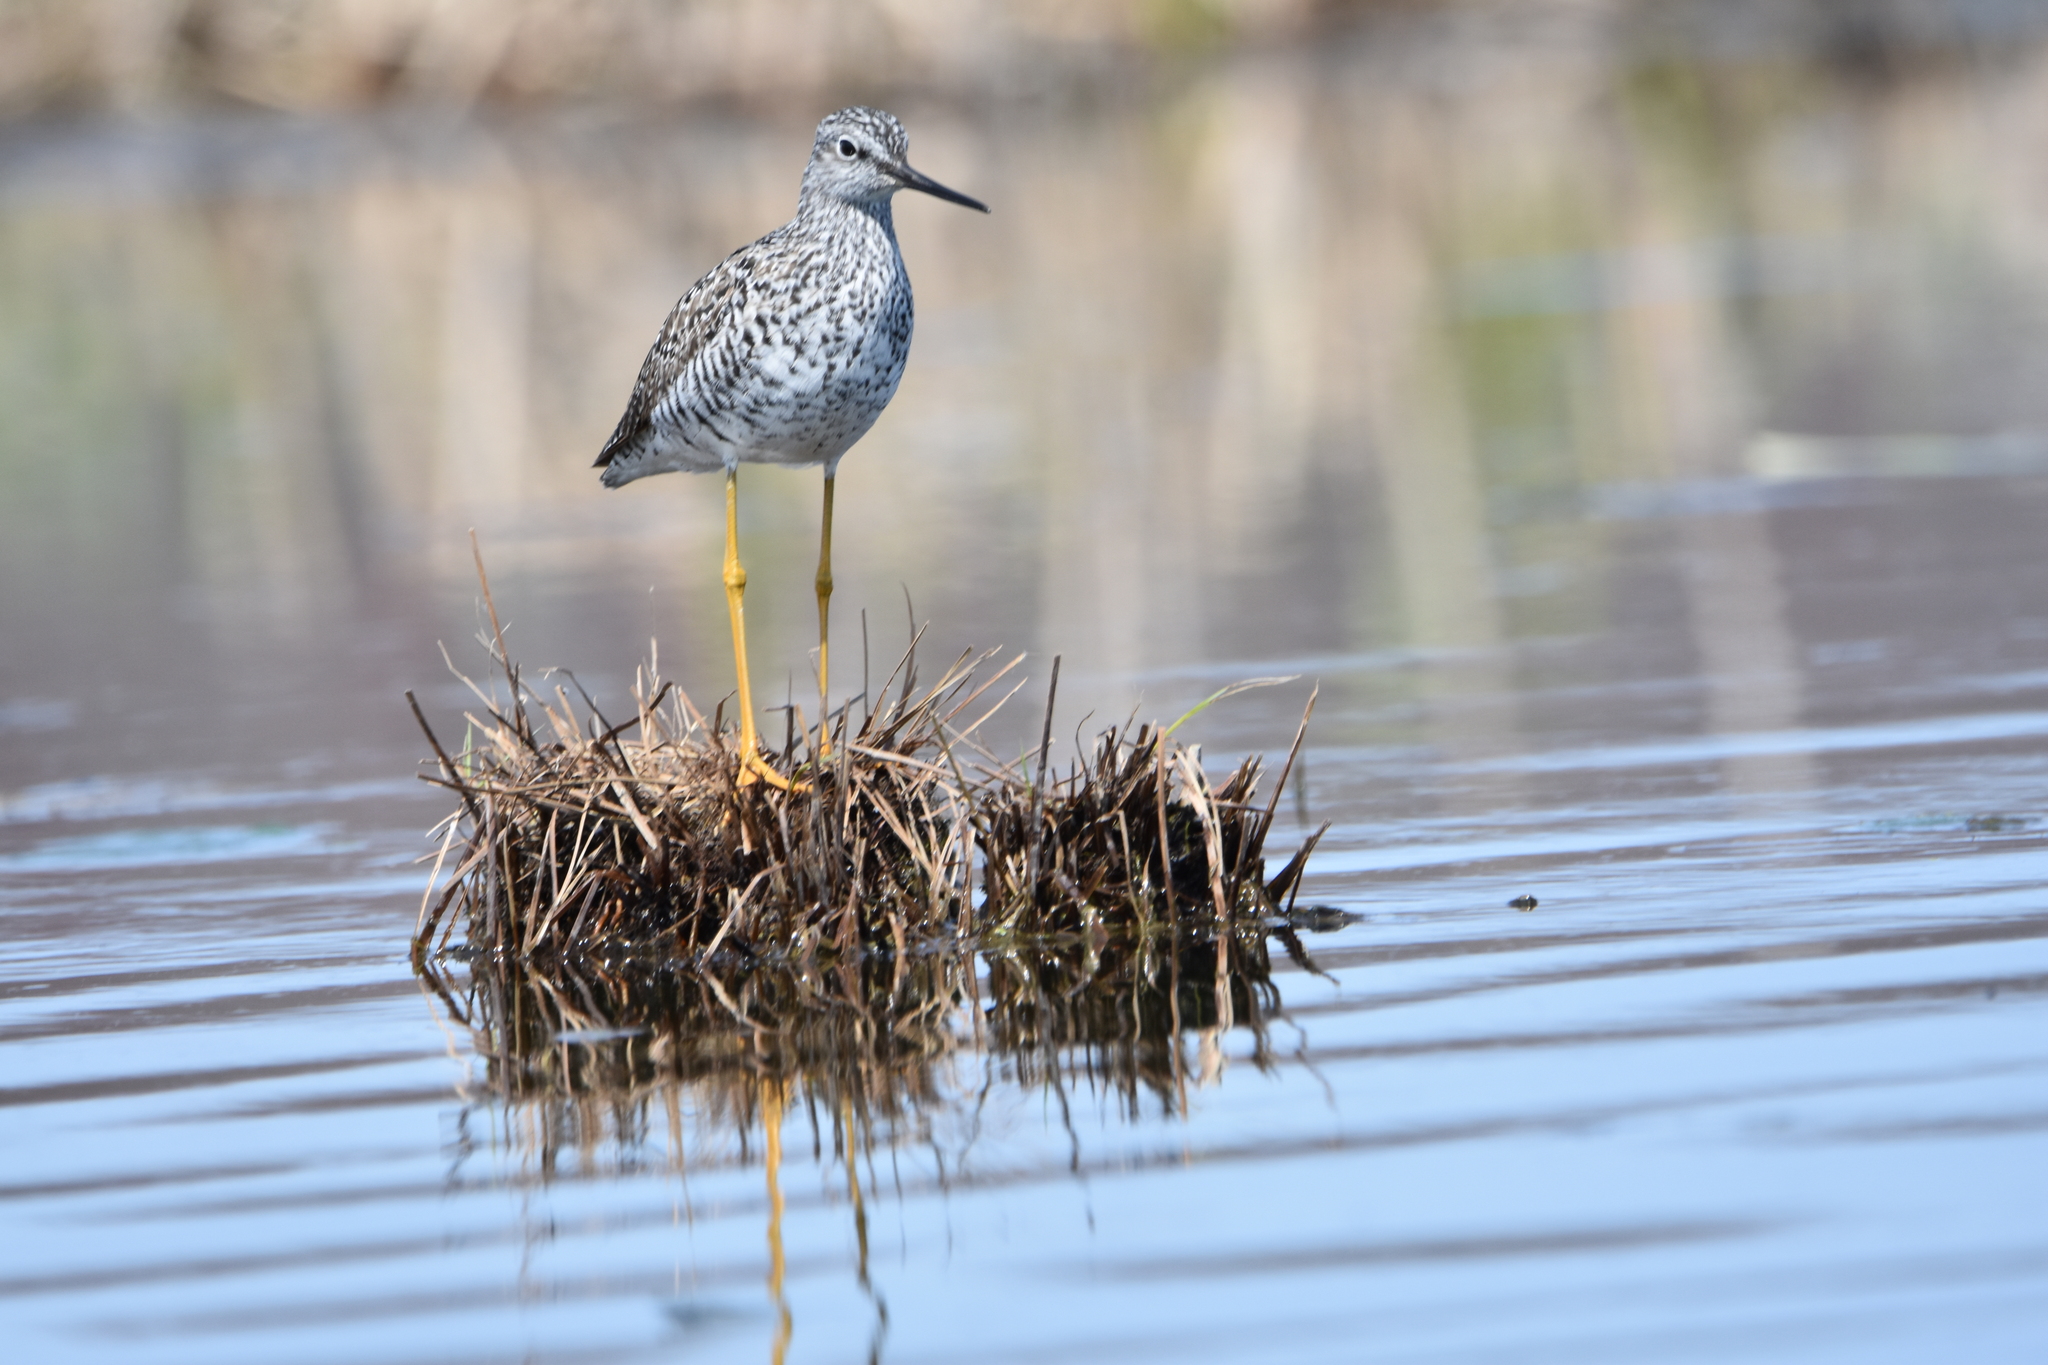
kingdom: Animalia
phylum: Chordata
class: Aves
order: Charadriiformes
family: Scolopacidae
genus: Tringa
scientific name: Tringa melanoleuca
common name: Greater yellowlegs
